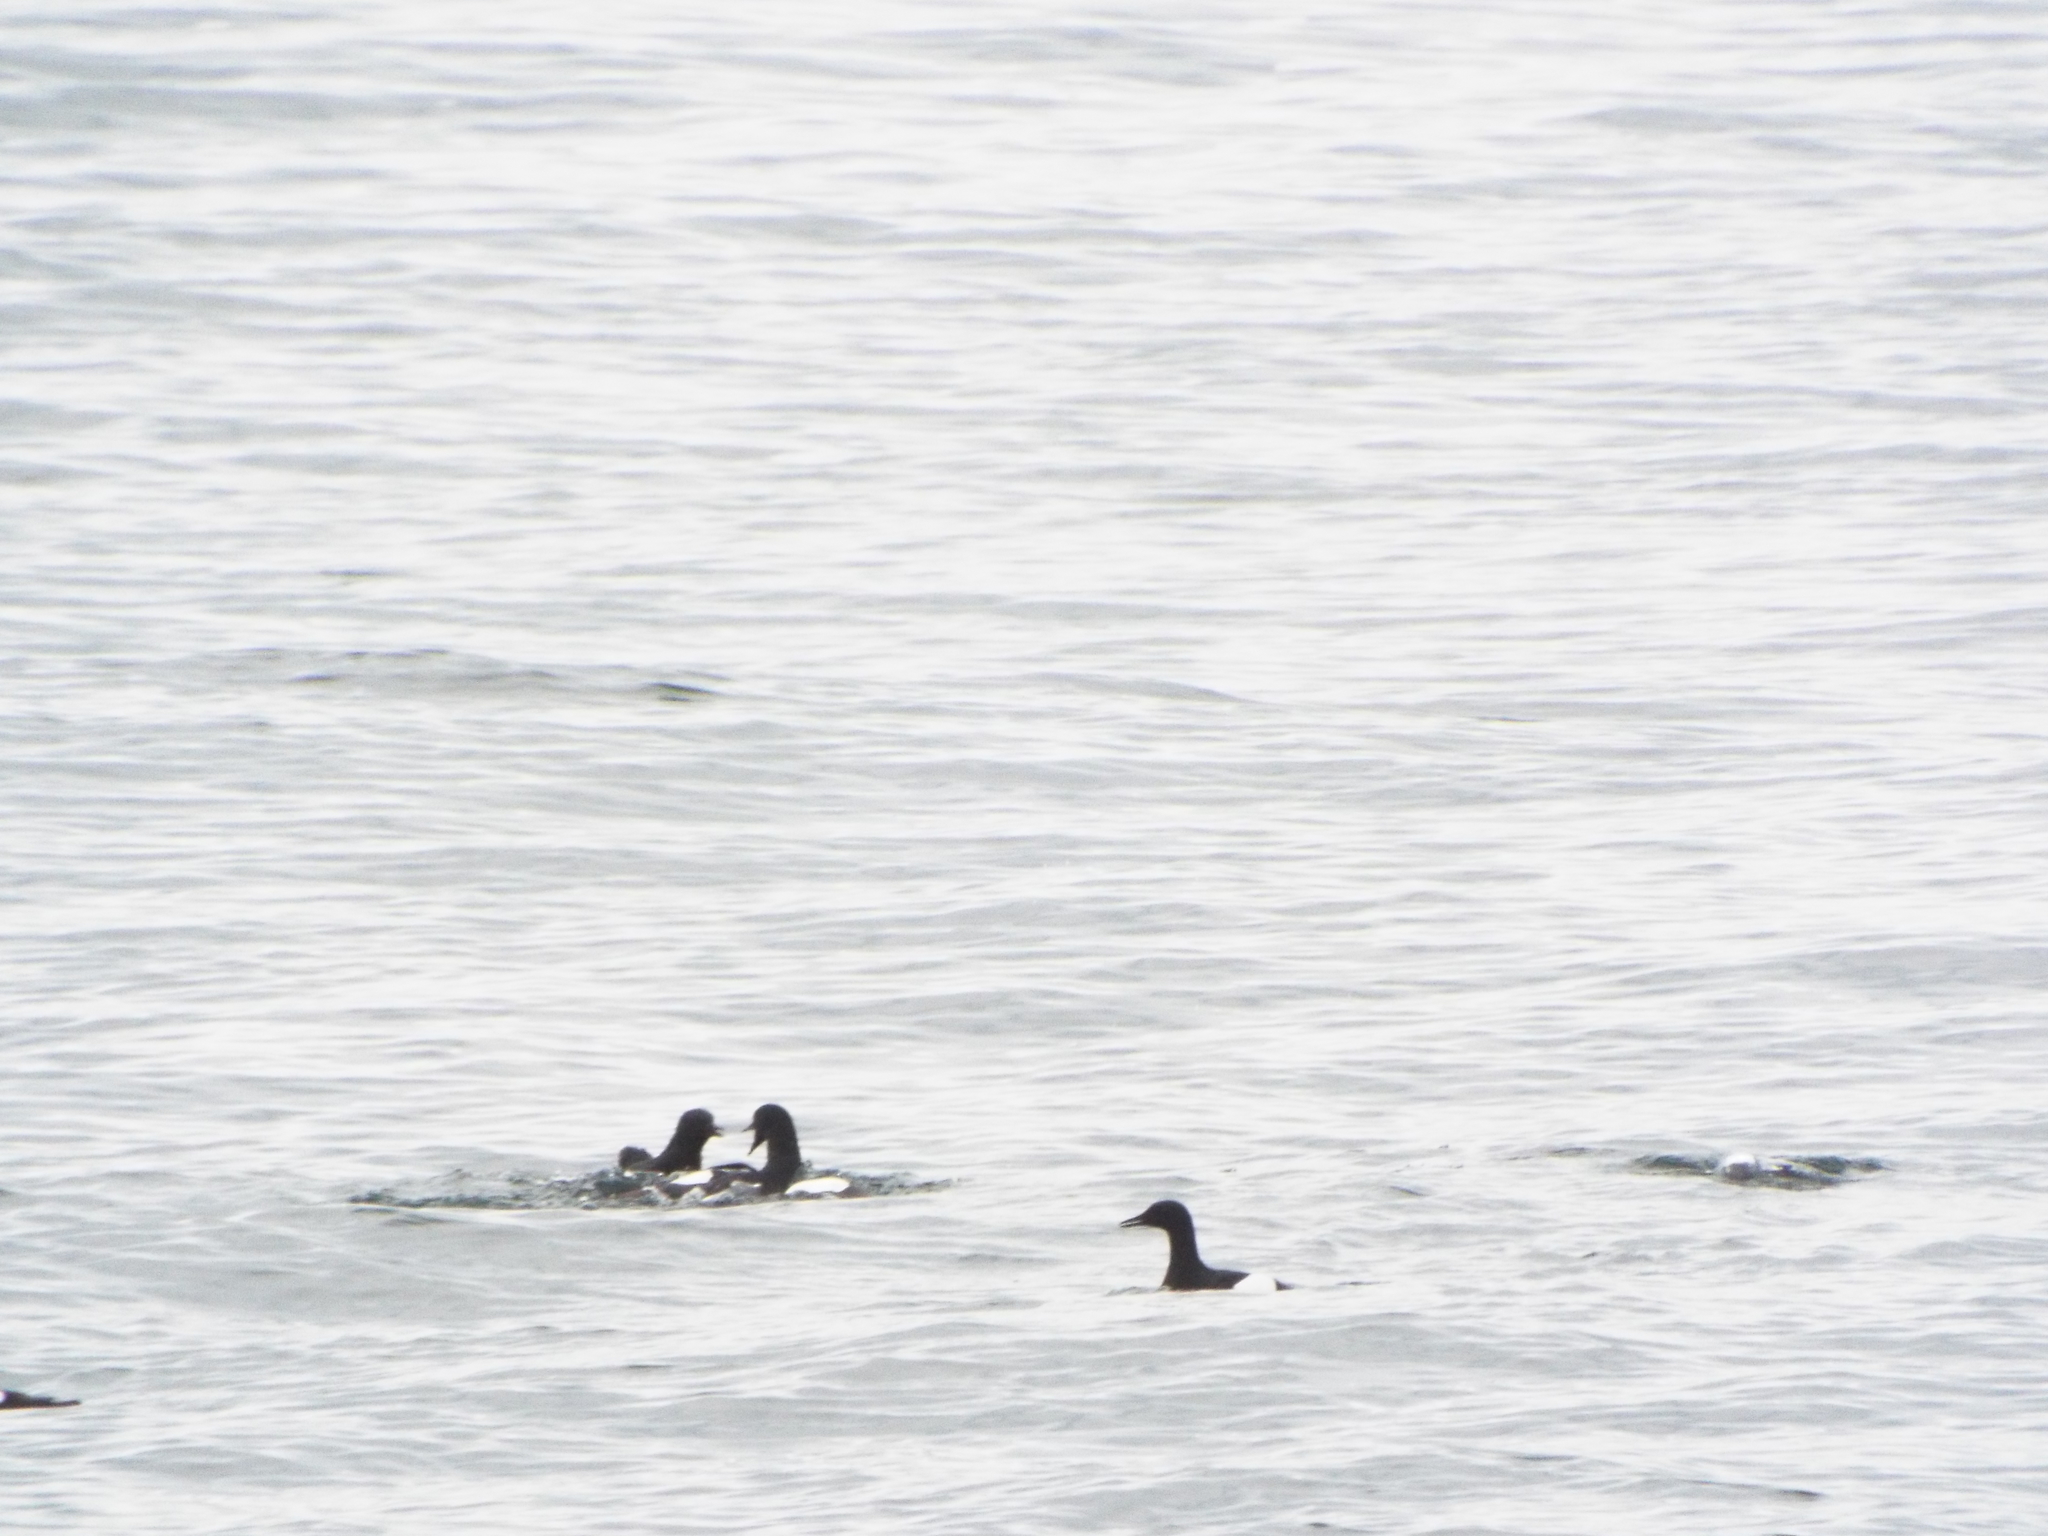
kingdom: Animalia
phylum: Chordata
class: Aves
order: Charadriiformes
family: Alcidae
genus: Cepphus
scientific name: Cepphus grylle
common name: Black guillemot
